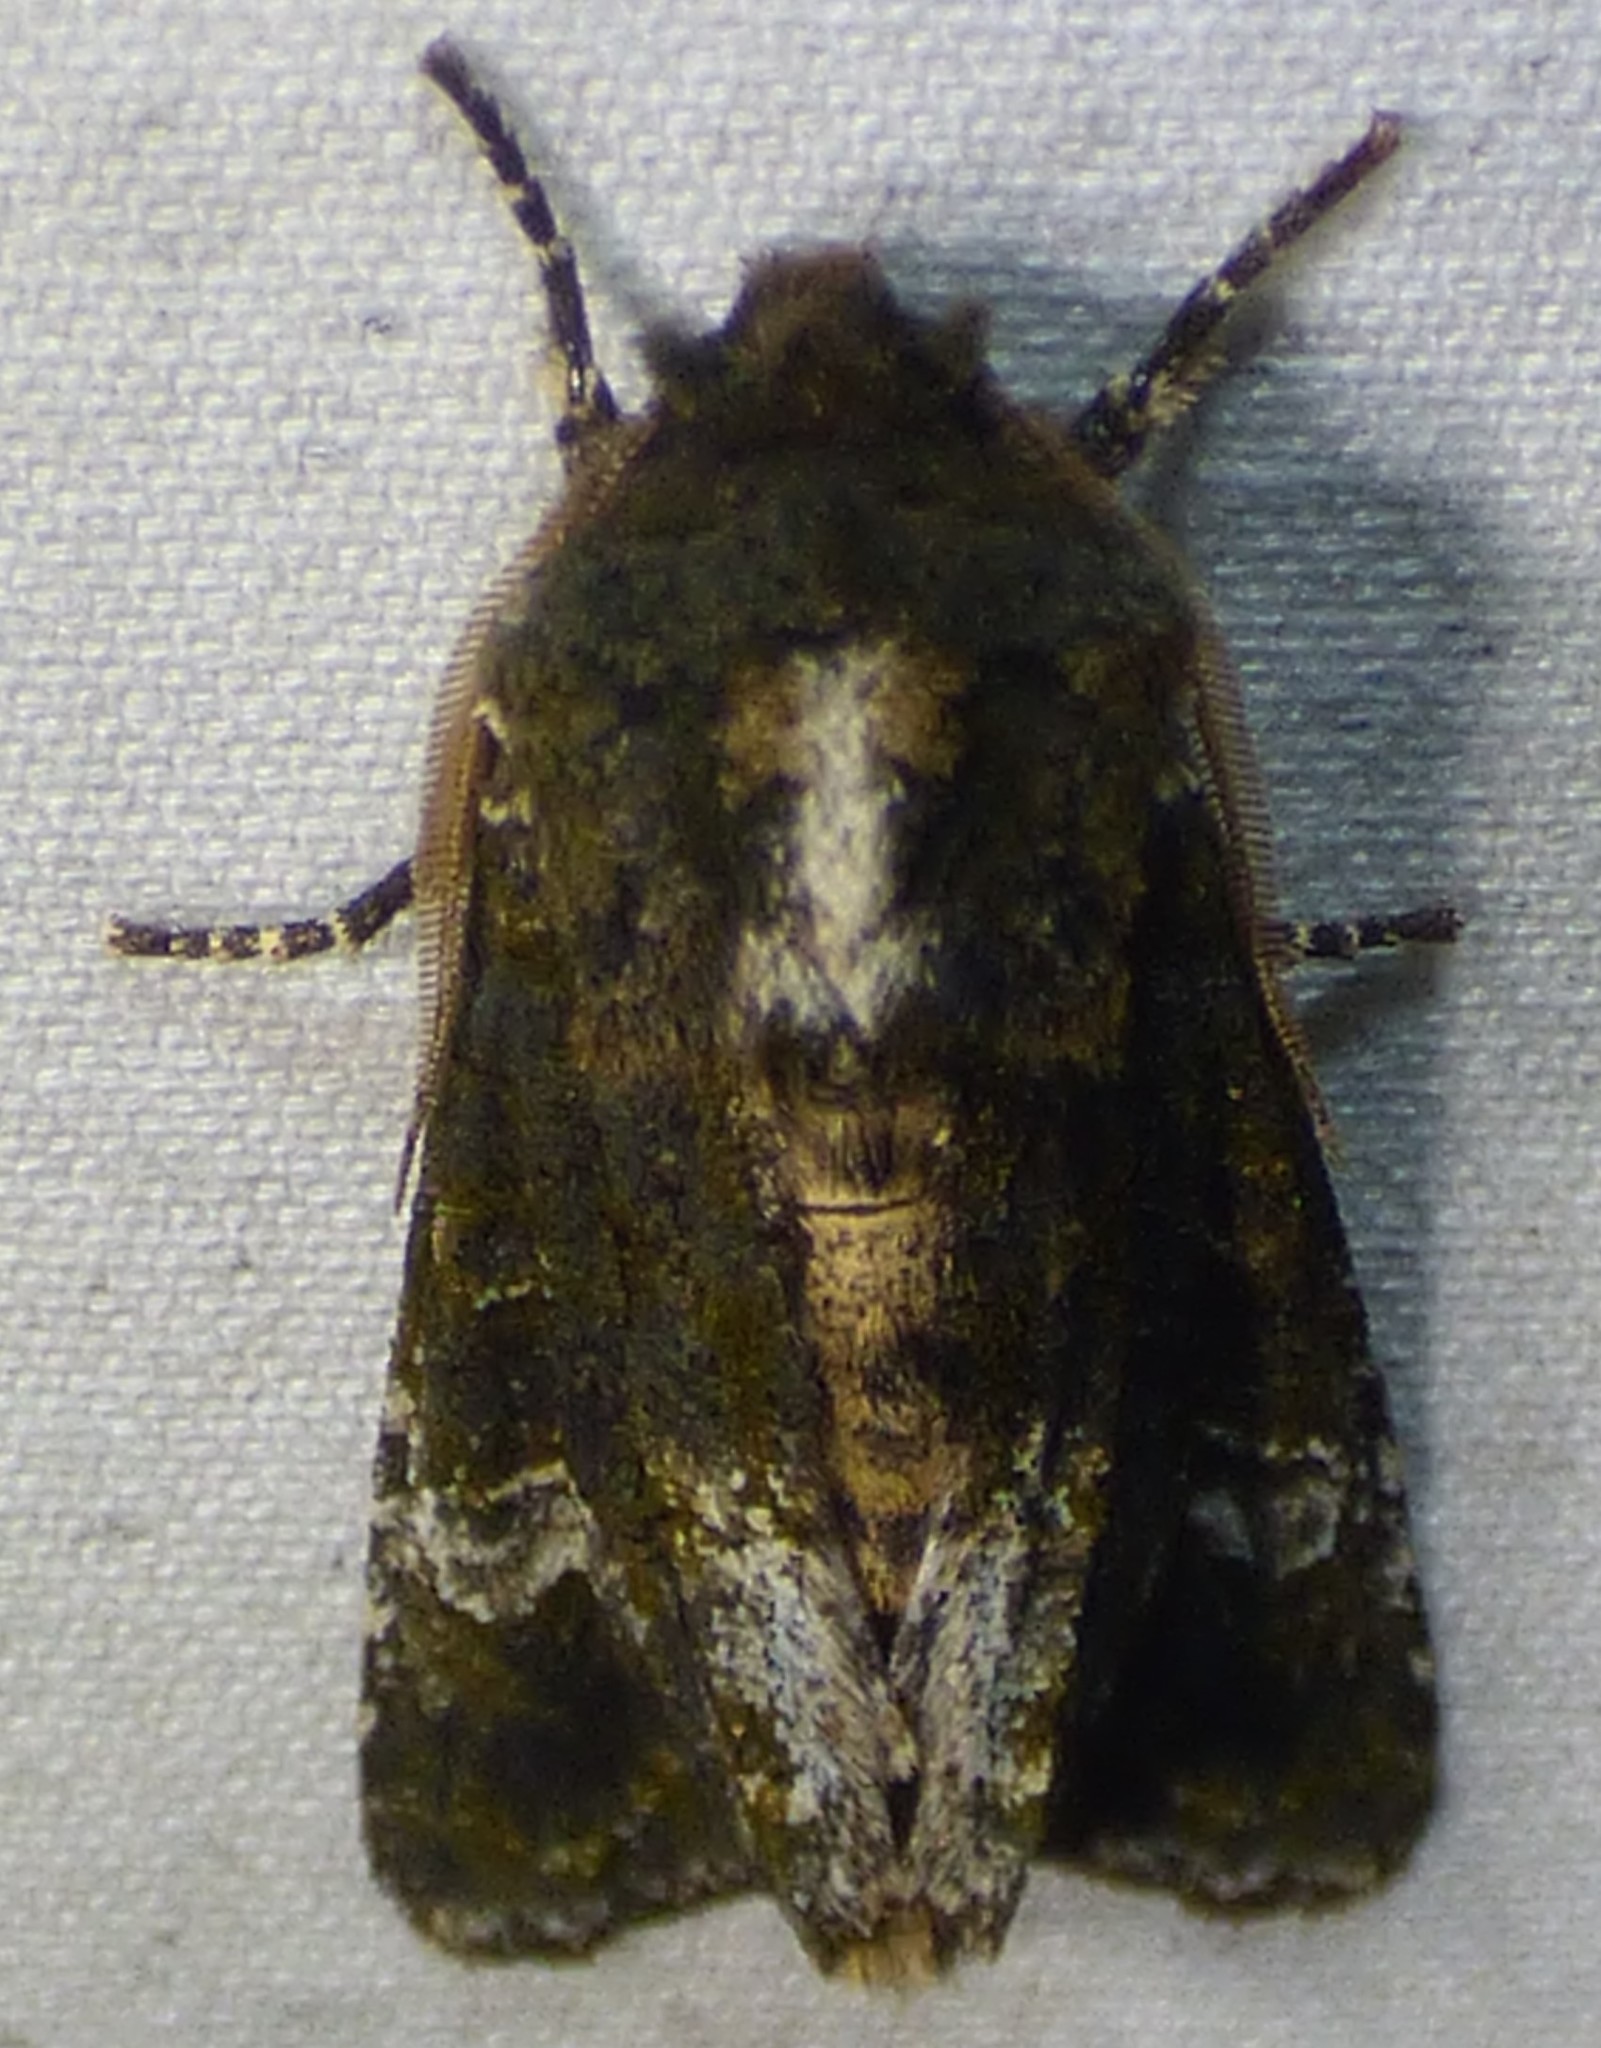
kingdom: Animalia
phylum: Arthropoda
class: Insecta
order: Lepidoptera
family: Noctuidae
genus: Psaphida
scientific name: Psaphida grotei
